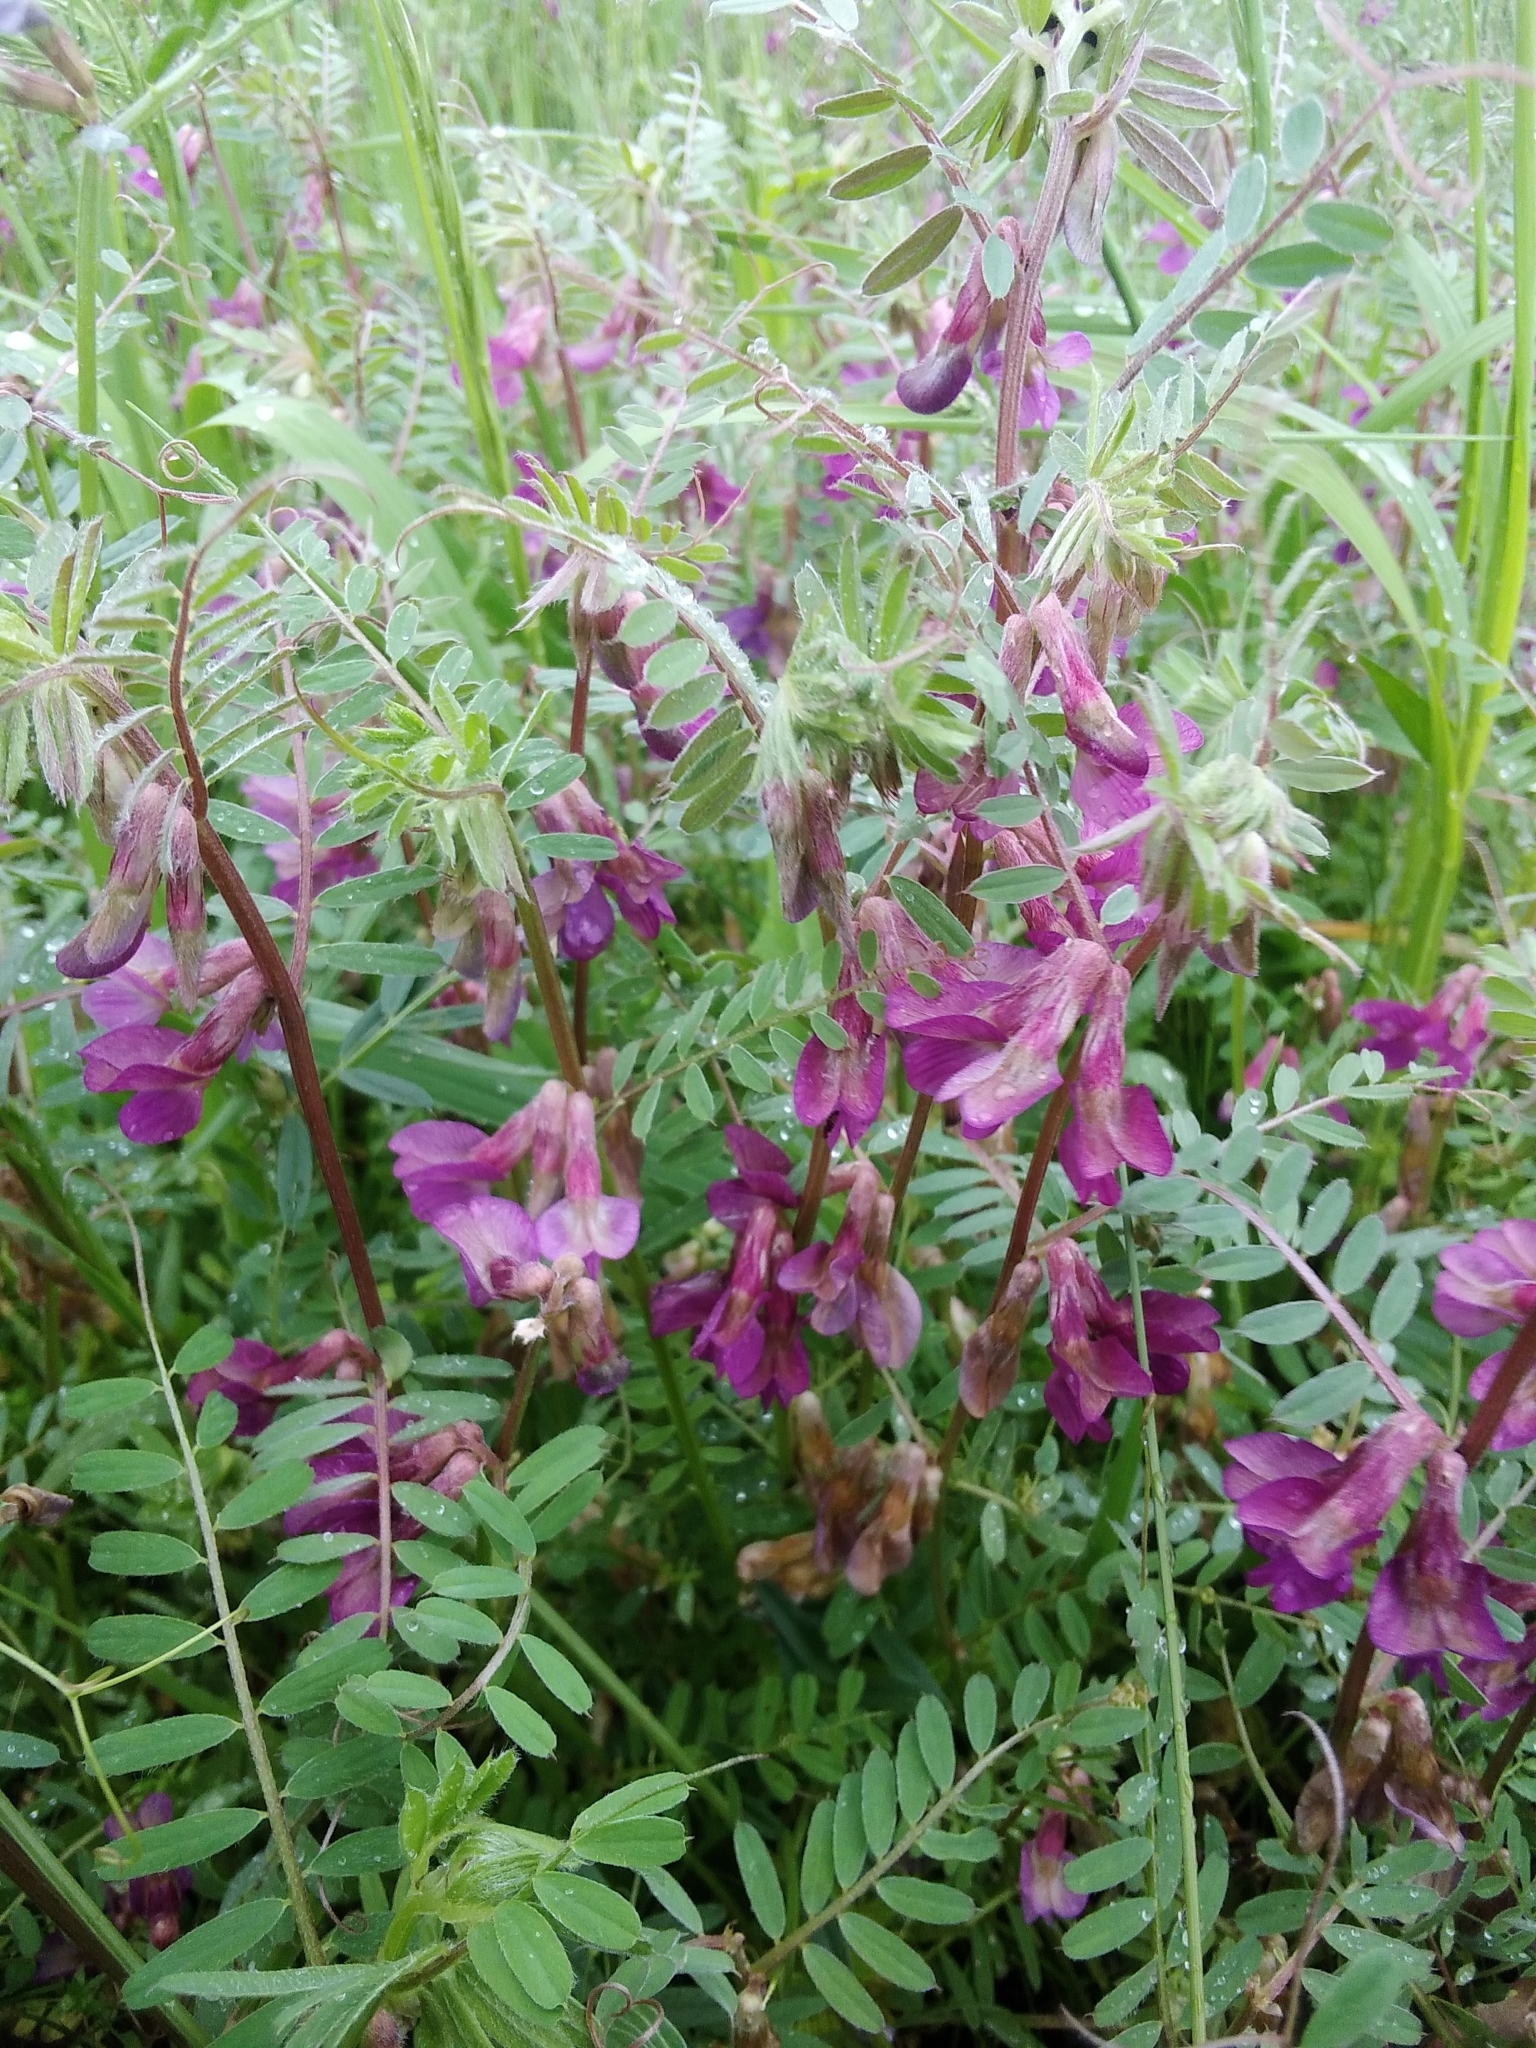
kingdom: Plantae
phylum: Tracheophyta
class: Magnoliopsida
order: Fabales
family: Fabaceae
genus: Vicia
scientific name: Vicia pannonica
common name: Hungarian vetch
